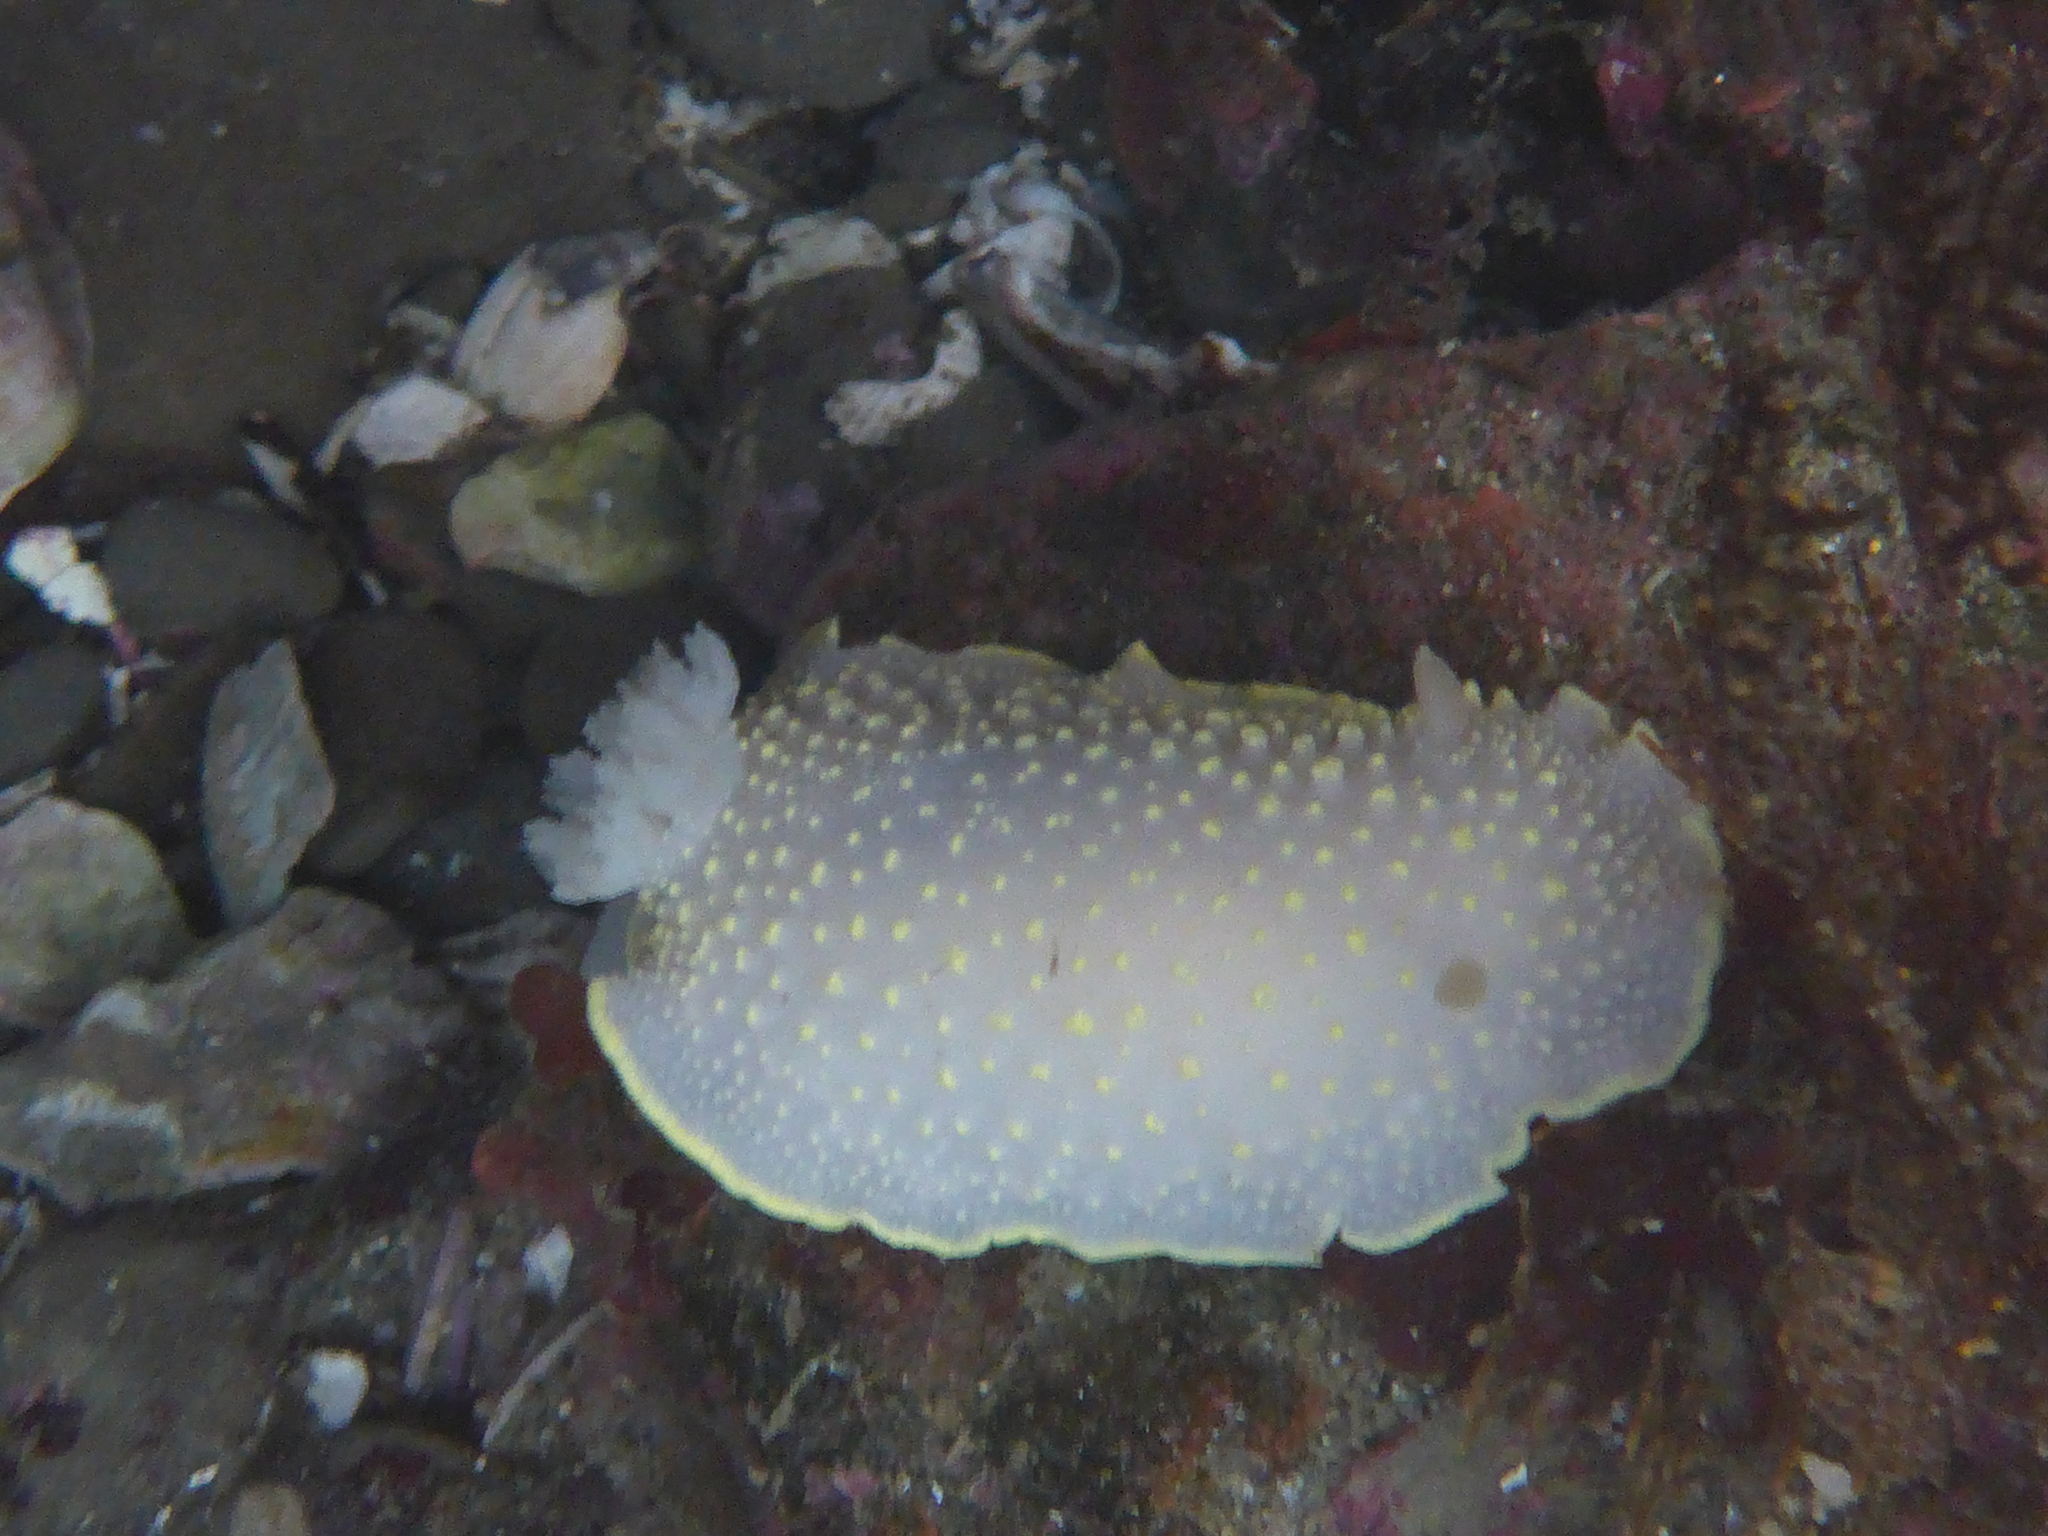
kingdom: Animalia
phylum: Mollusca
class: Gastropoda
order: Nudibranchia
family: Cadlinidae
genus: Cadlina
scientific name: Cadlina luteomarginata
